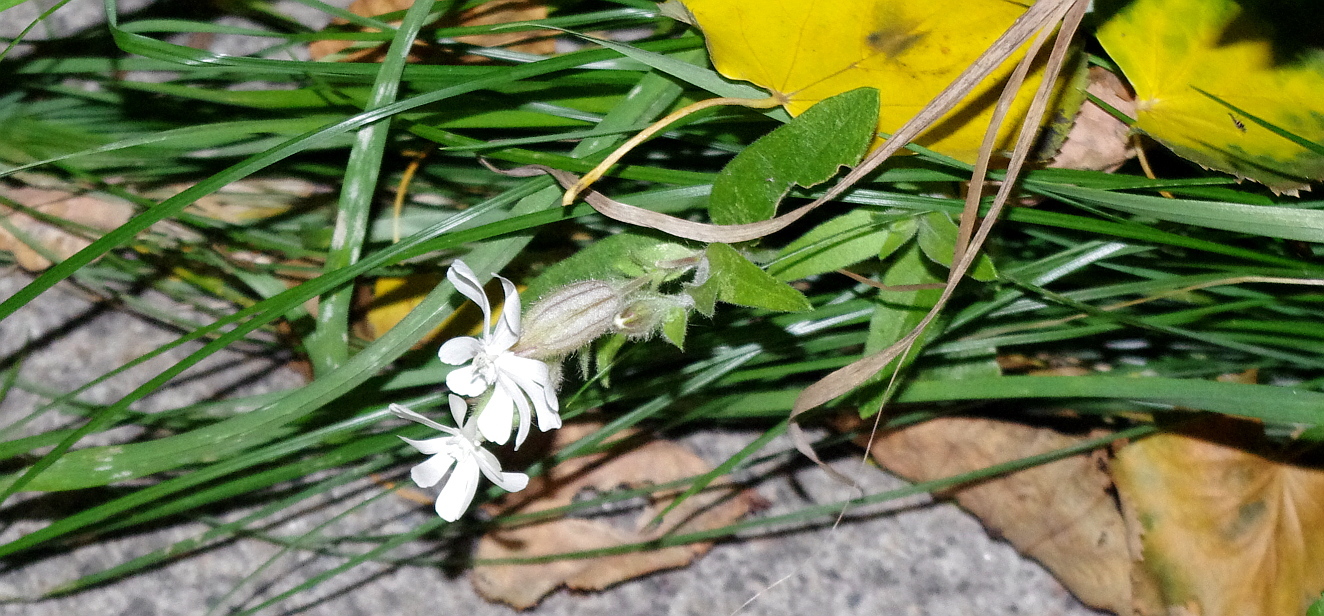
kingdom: Plantae
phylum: Tracheophyta
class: Magnoliopsida
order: Caryophyllales
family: Caryophyllaceae
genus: Silene
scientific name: Silene latifolia
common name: White campion
